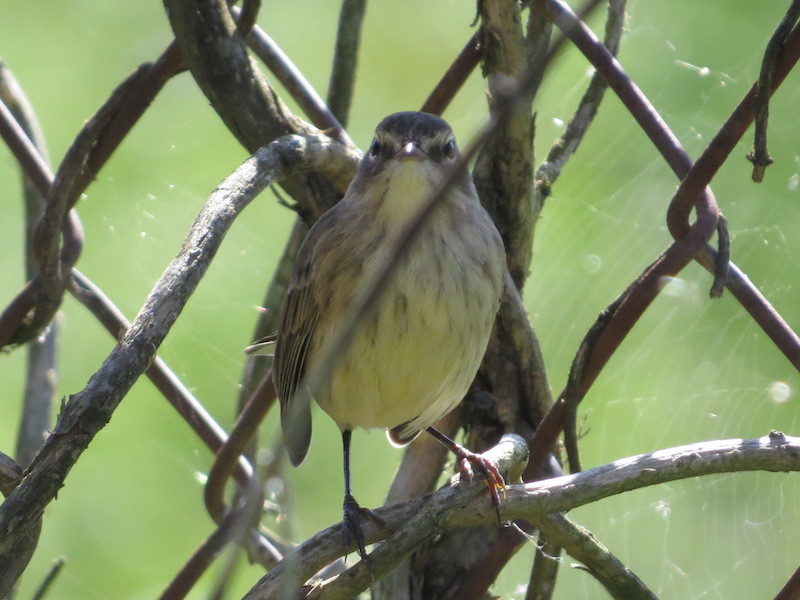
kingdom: Animalia
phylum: Chordata
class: Aves
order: Passeriformes
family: Parulidae
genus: Setophaga
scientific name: Setophaga palmarum
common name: Palm warbler
